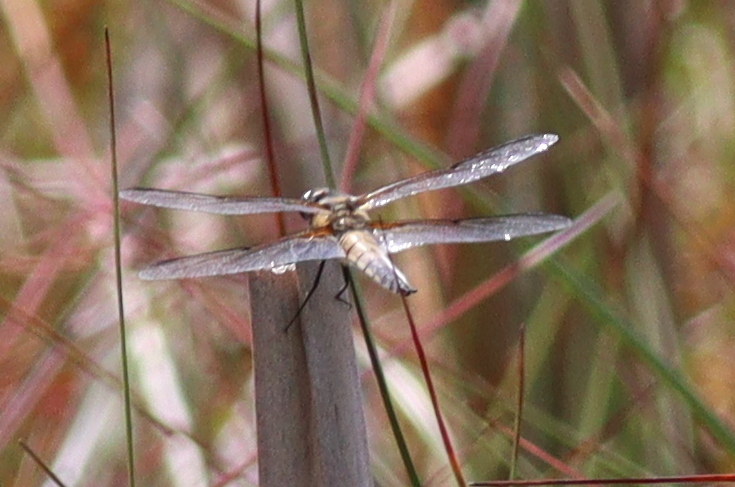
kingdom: Animalia
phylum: Arthropoda
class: Insecta
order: Odonata
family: Libellulidae
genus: Libellula
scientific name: Libellula quadrimaculata
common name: Four-spotted chaser
